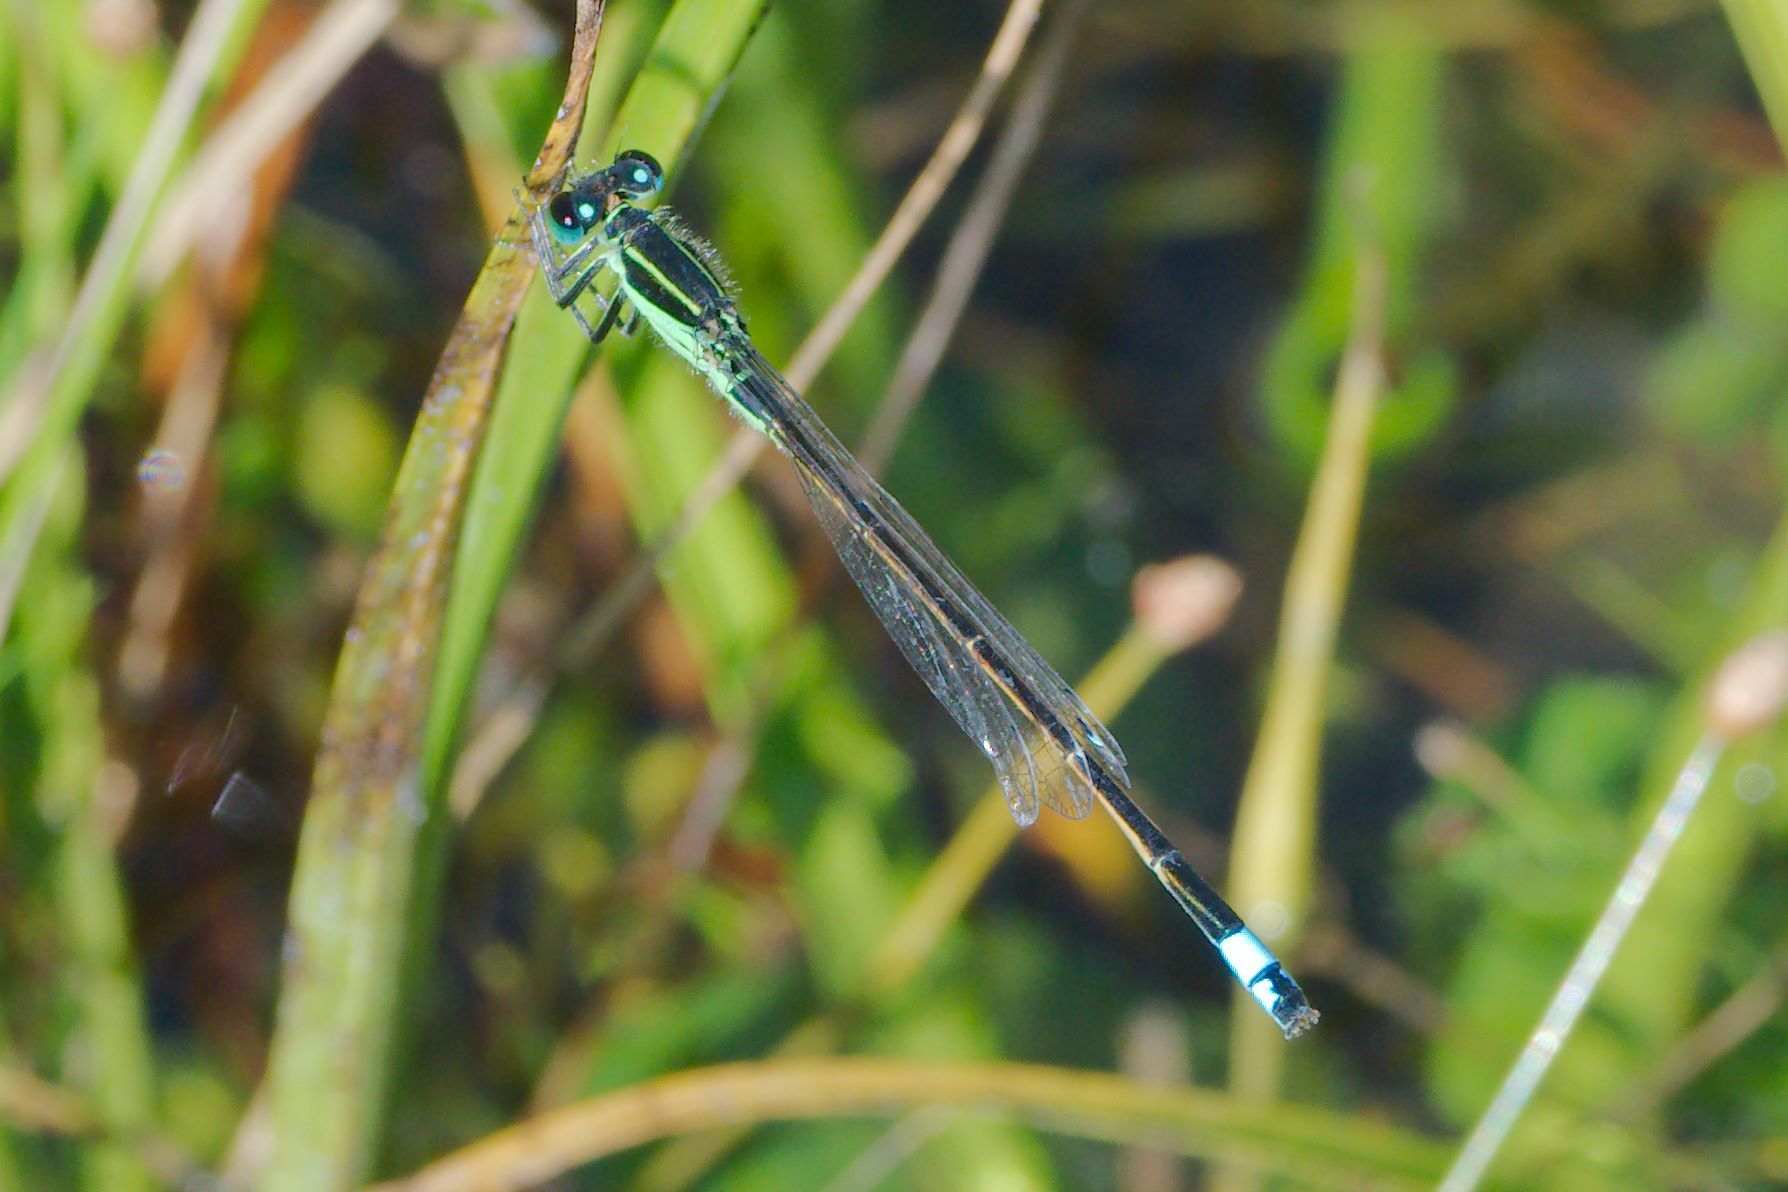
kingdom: Animalia
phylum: Arthropoda
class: Insecta
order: Odonata
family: Coenagrionidae
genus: Ischnura
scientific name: Ischnura ramburii
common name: Rambur's forktail
